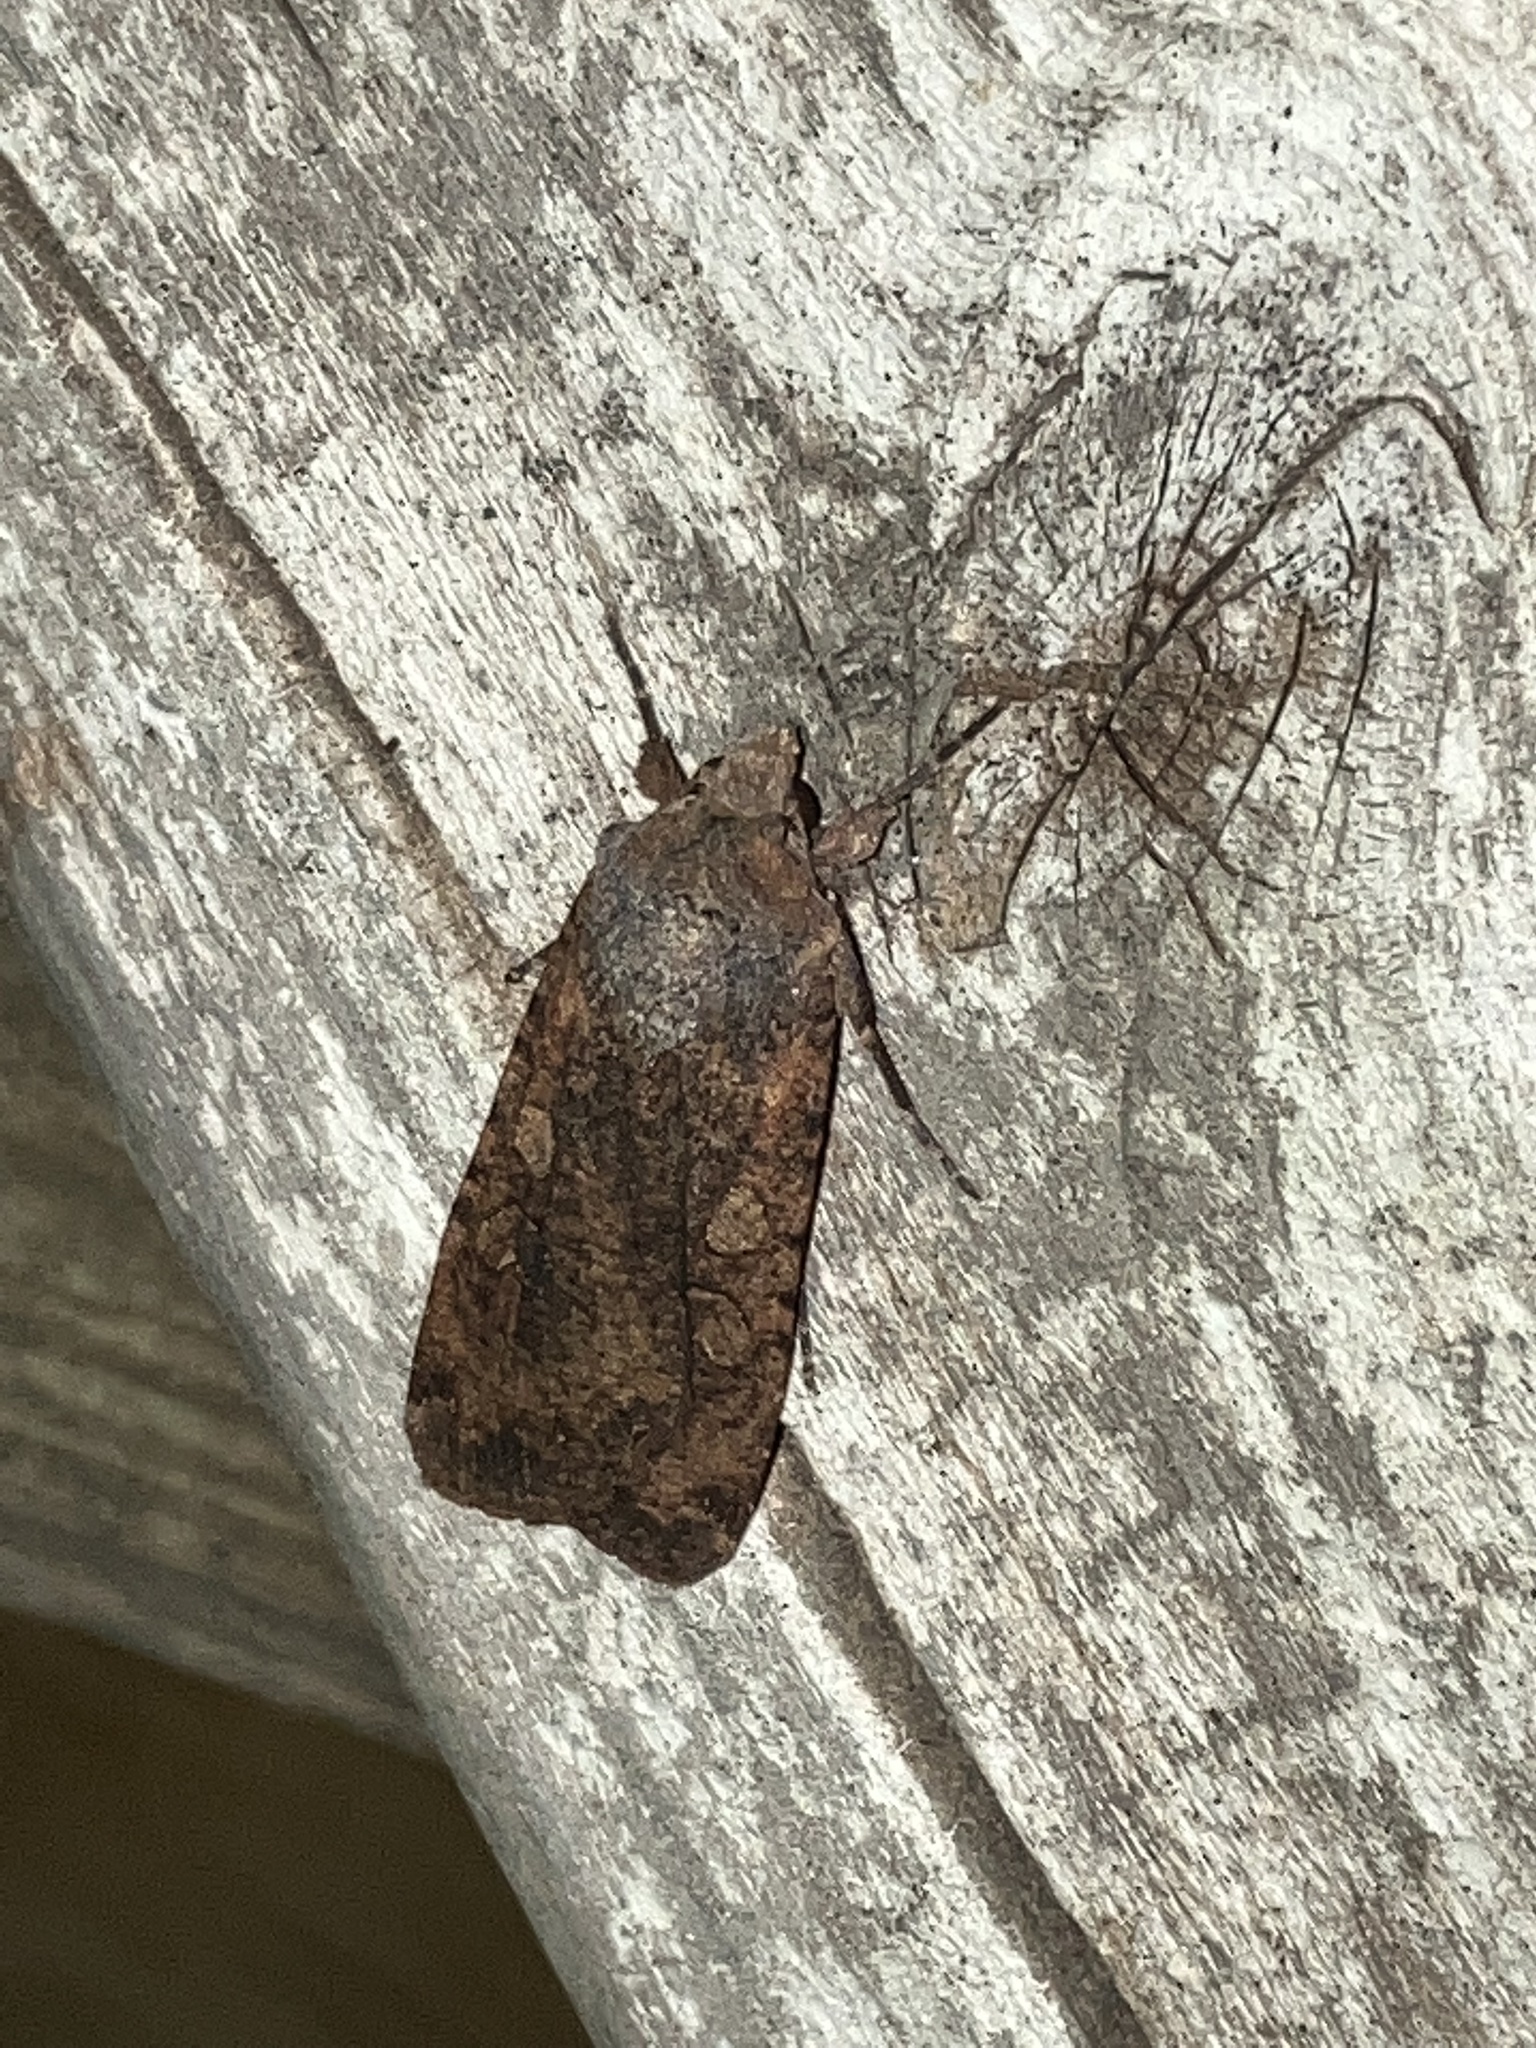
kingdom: Animalia
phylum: Arthropoda
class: Insecta
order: Lepidoptera
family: Noctuidae
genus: Peridroma
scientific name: Peridroma saucia
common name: Pearly underwing
